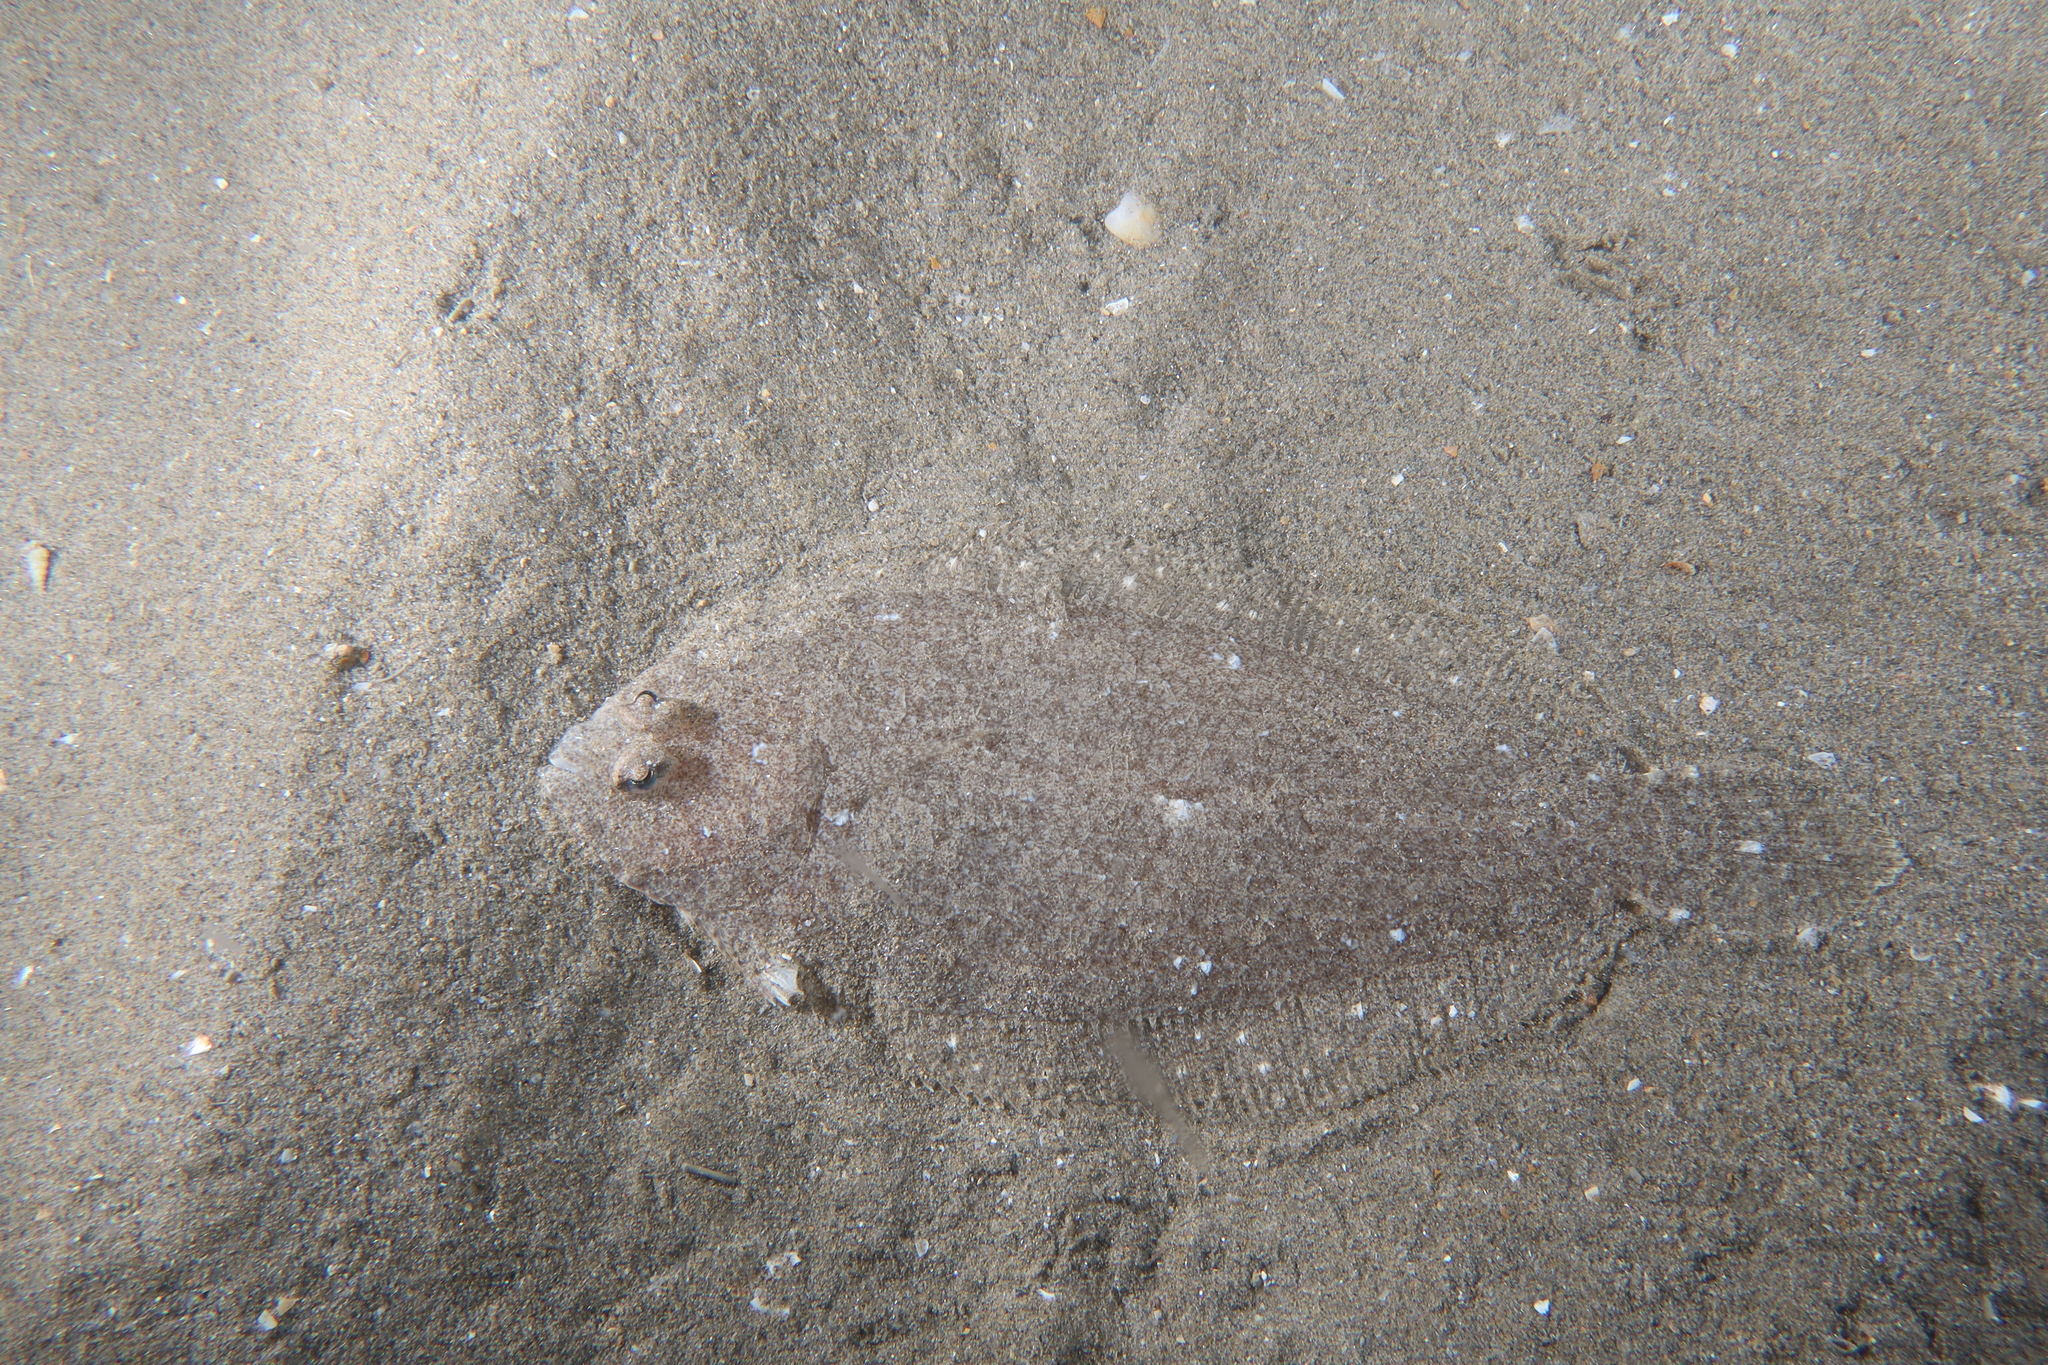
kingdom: Animalia
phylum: Chordata
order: Pleuronectiformes
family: Bothidae
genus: Arnoglossus
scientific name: Arnoglossus laterna
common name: Scaldfish
